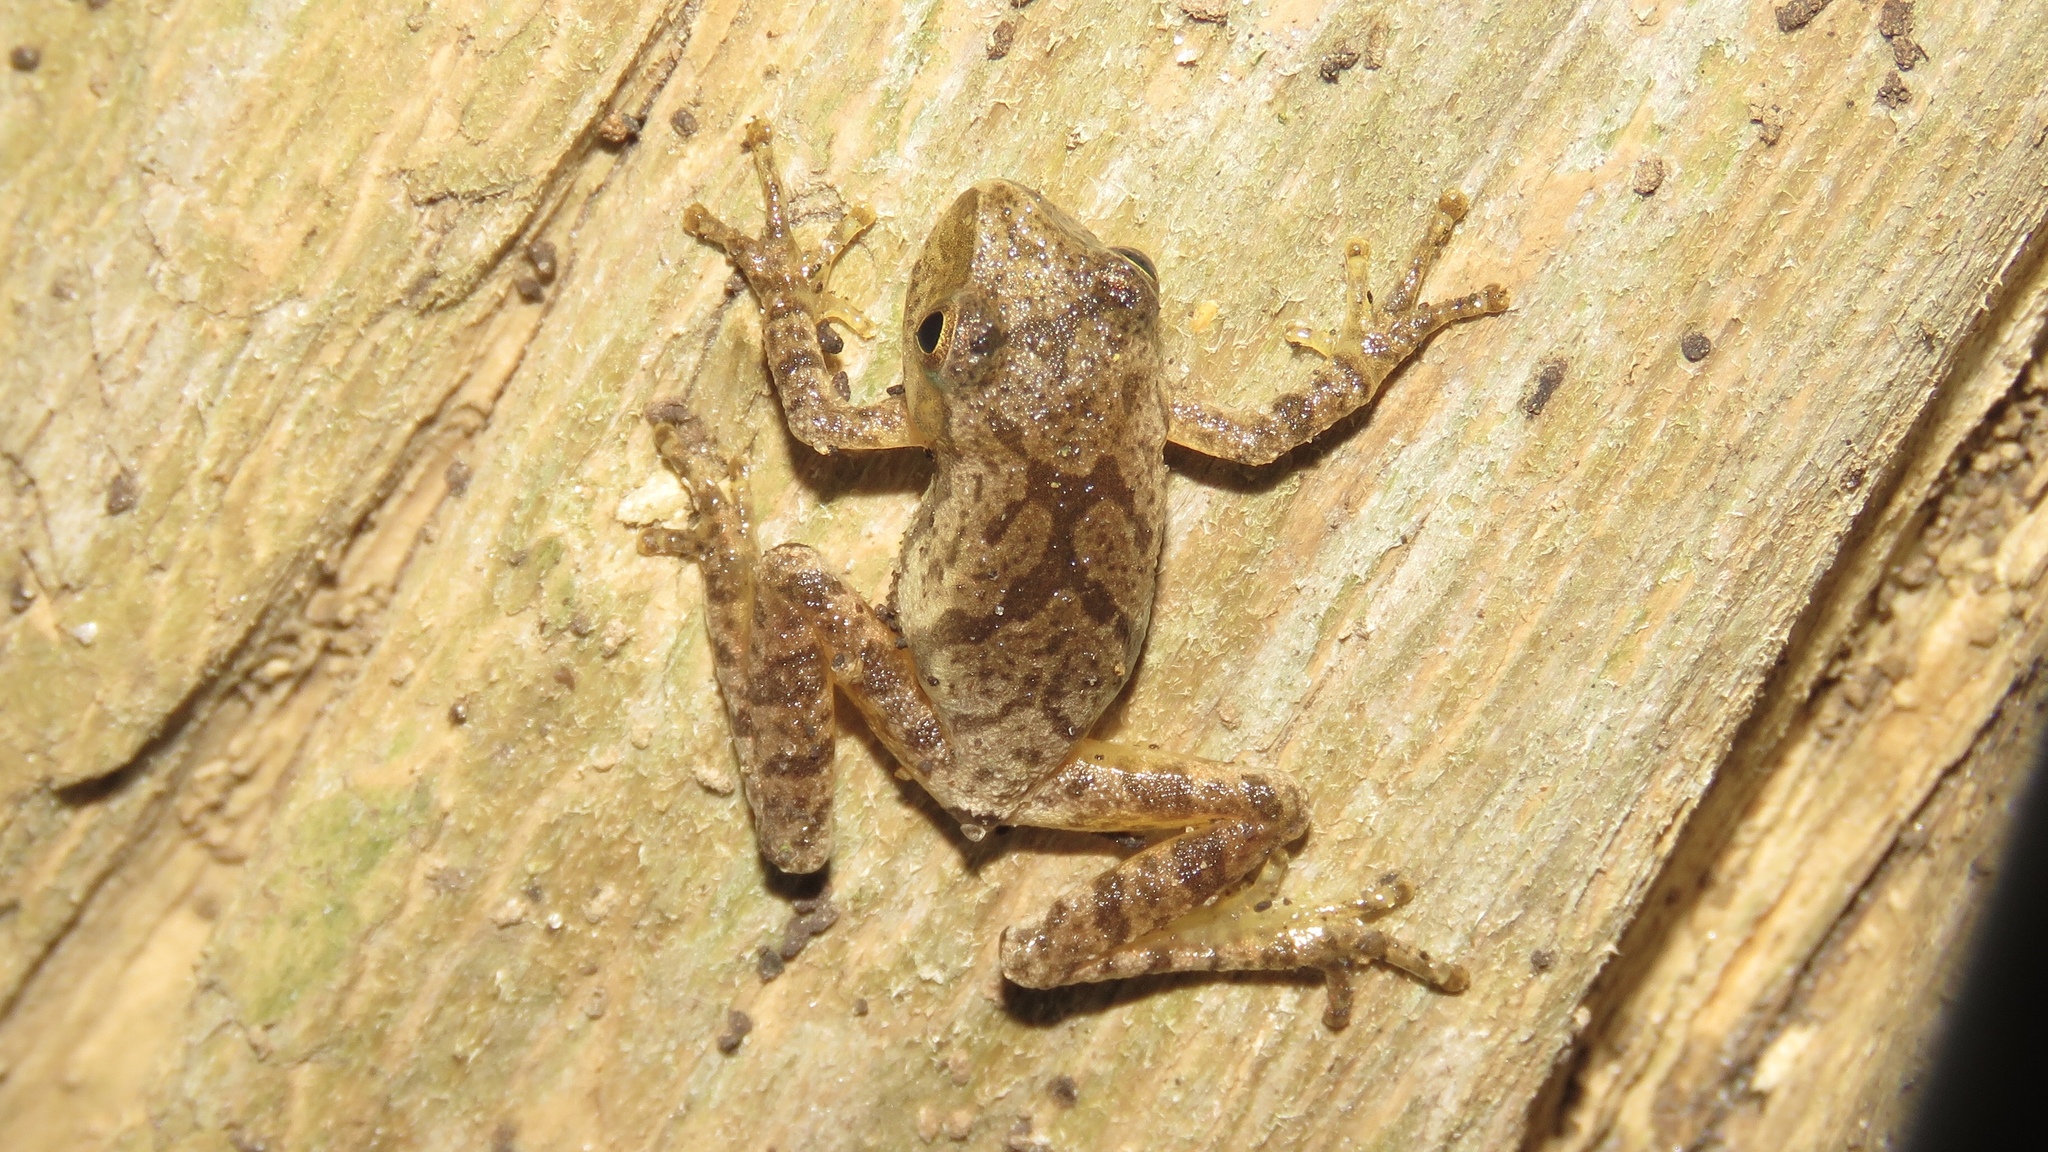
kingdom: Animalia
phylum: Chordata
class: Amphibia
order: Anura
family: Hylidae
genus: Pseudacris
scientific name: Pseudacris crucifer
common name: Spring peeper
